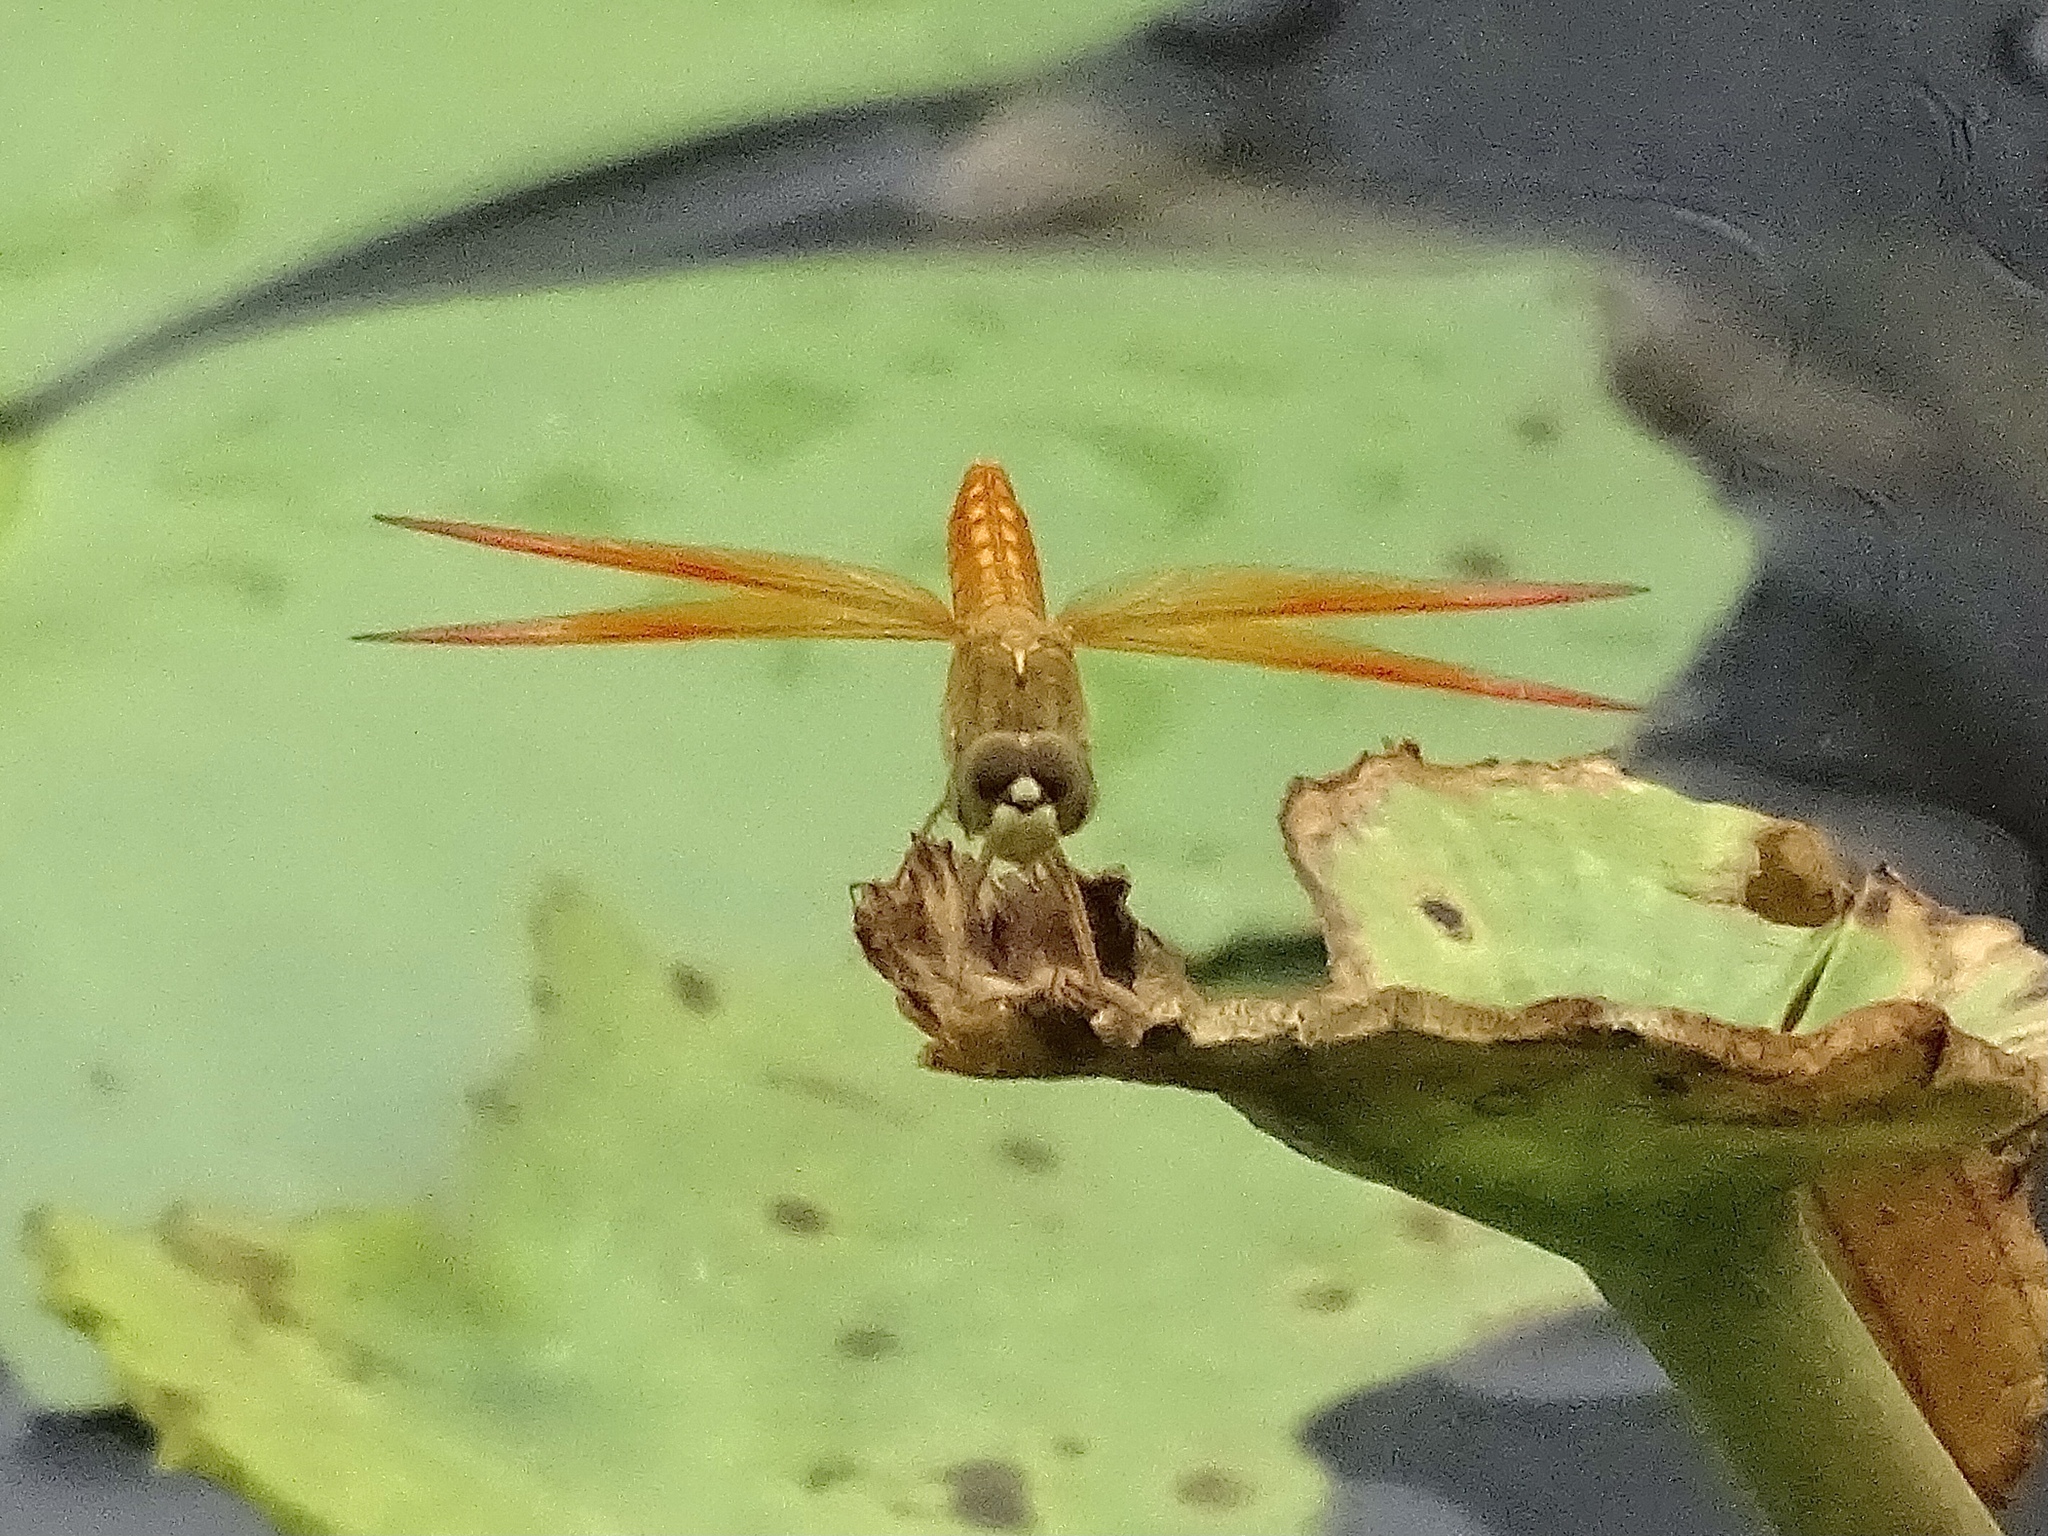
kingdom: Animalia
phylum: Arthropoda
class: Insecta
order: Odonata
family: Libellulidae
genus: Brachythemis
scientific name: Brachythemis contaminata
